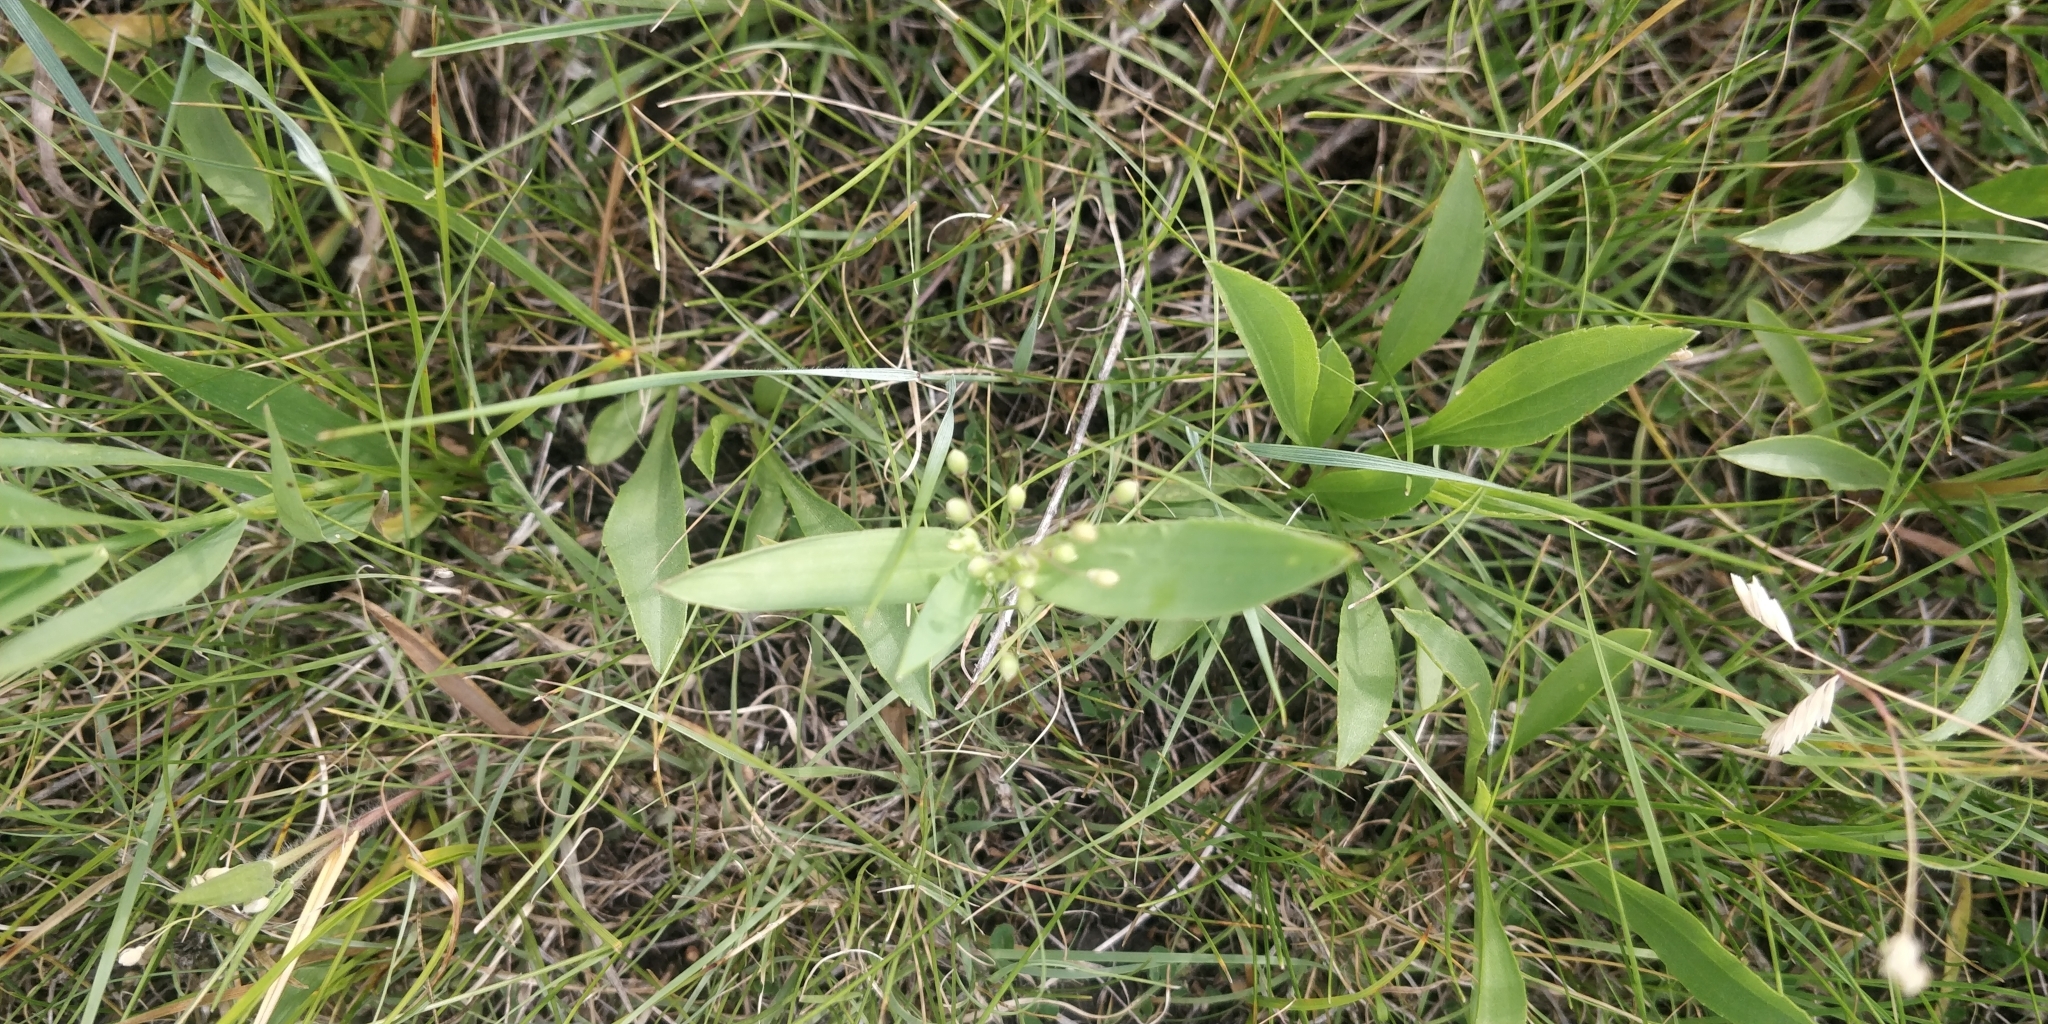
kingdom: Plantae
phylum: Tracheophyta
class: Liliopsida
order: Poales
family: Poaceae
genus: Dichanthelium
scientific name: Dichanthelium scribnerianum
